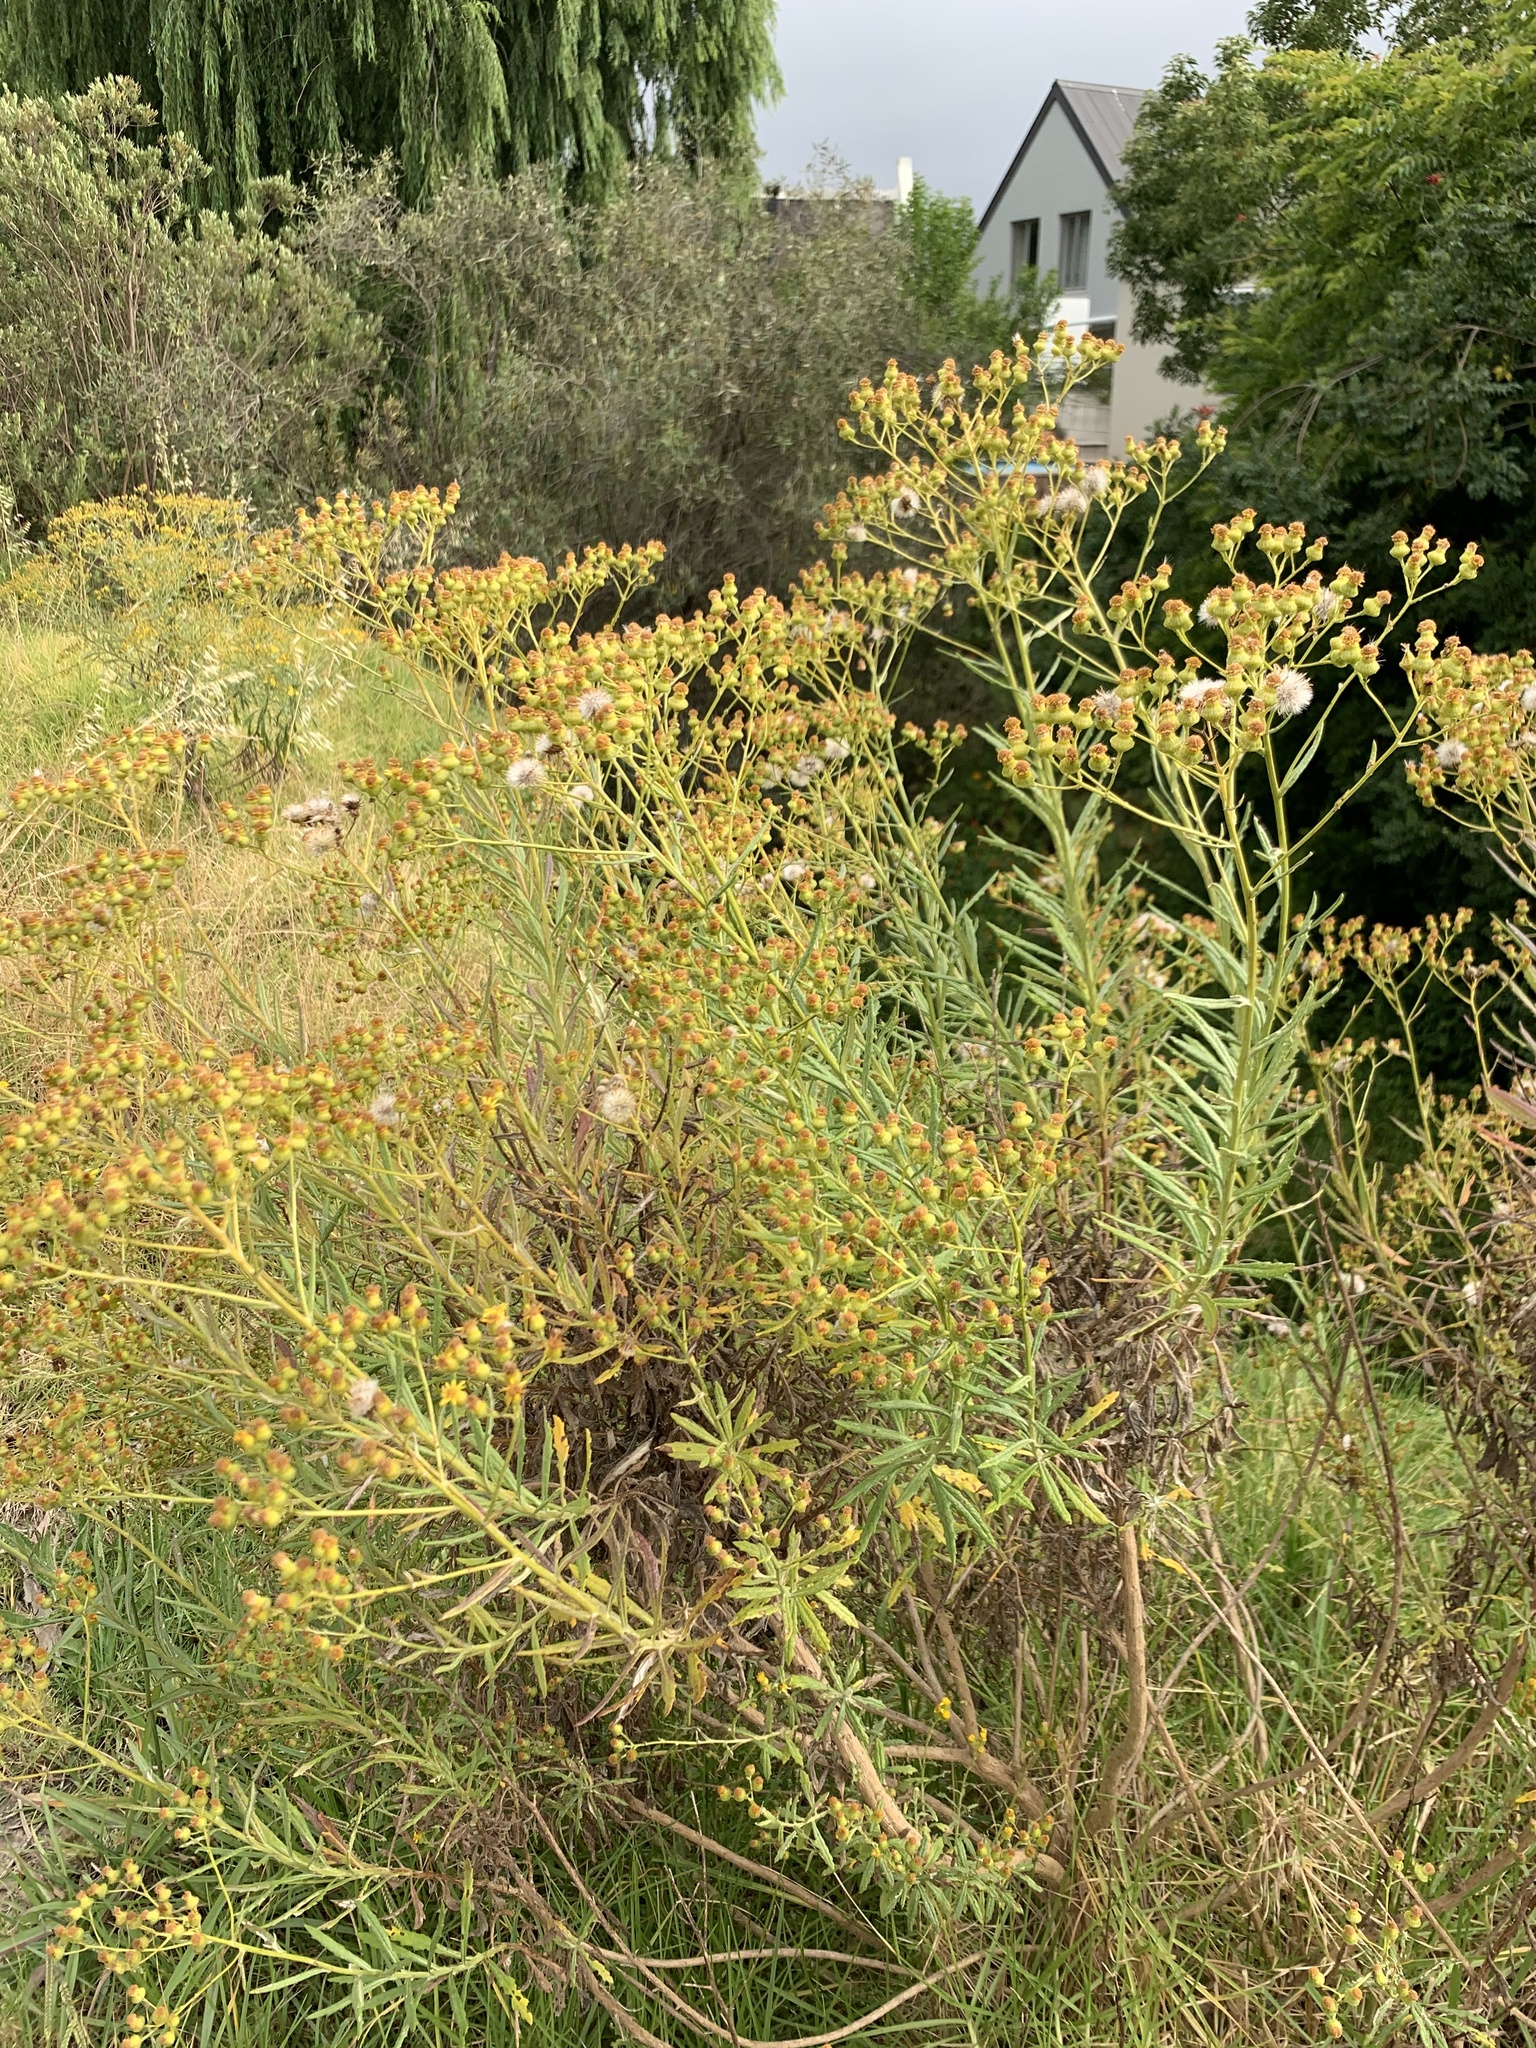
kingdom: Plantae
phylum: Tracheophyta
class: Magnoliopsida
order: Asterales
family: Asteraceae
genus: Senecio
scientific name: Senecio pterophorus
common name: Shoddy ragwort
